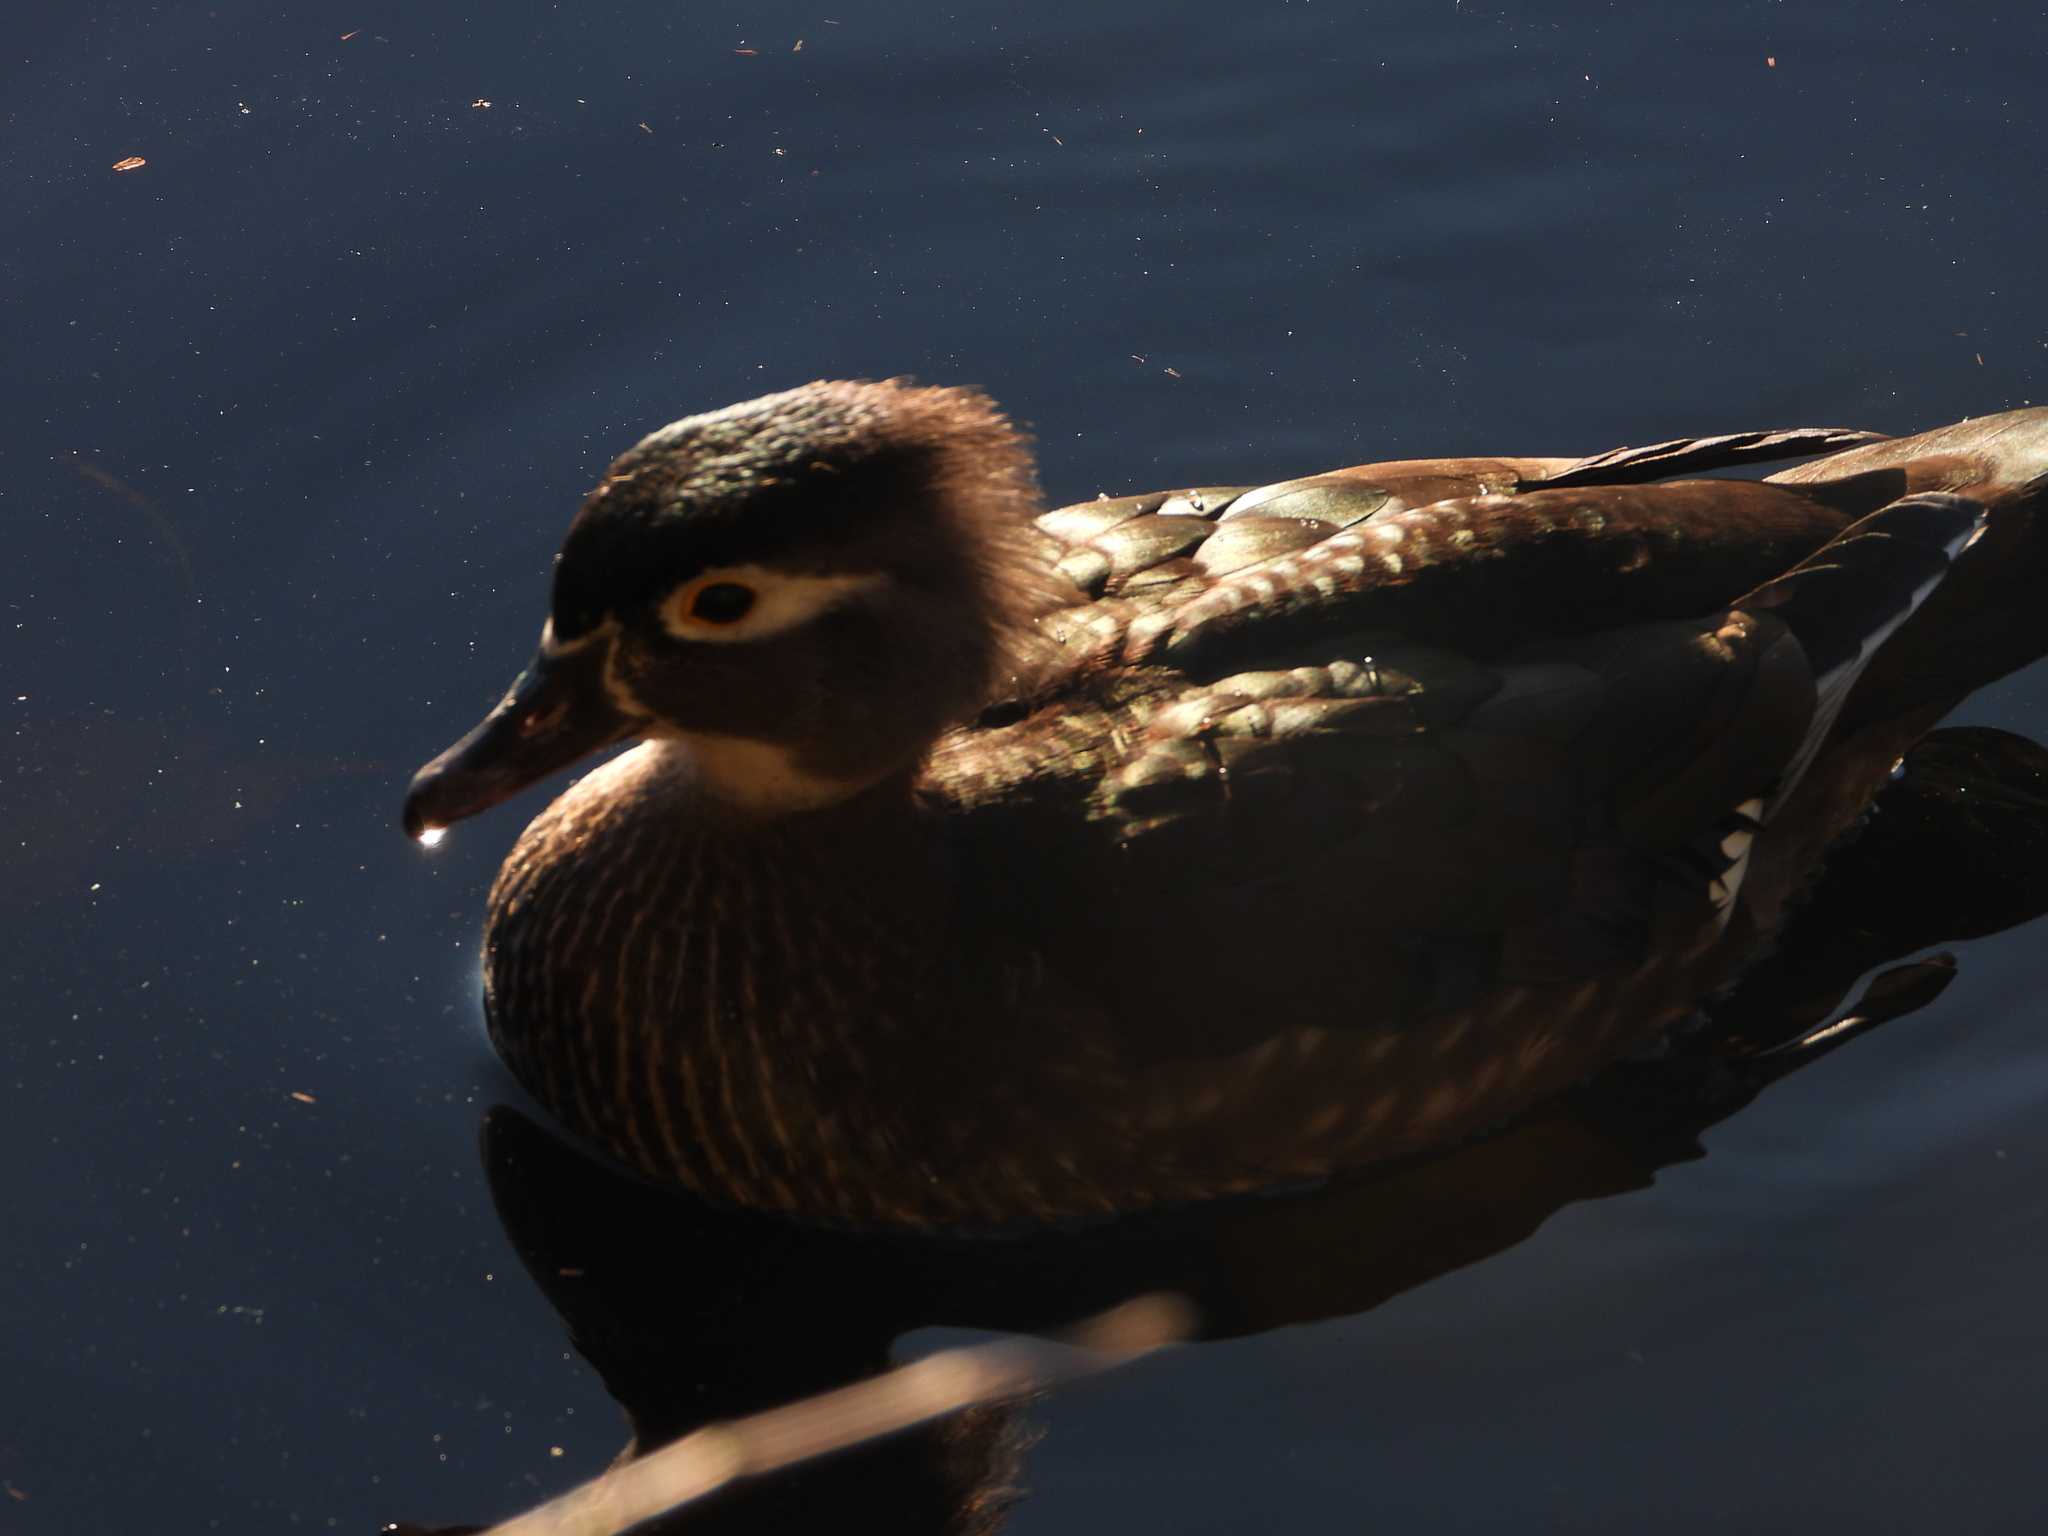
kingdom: Animalia
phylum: Chordata
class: Aves
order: Anseriformes
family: Anatidae
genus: Aix
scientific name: Aix sponsa
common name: Wood duck
